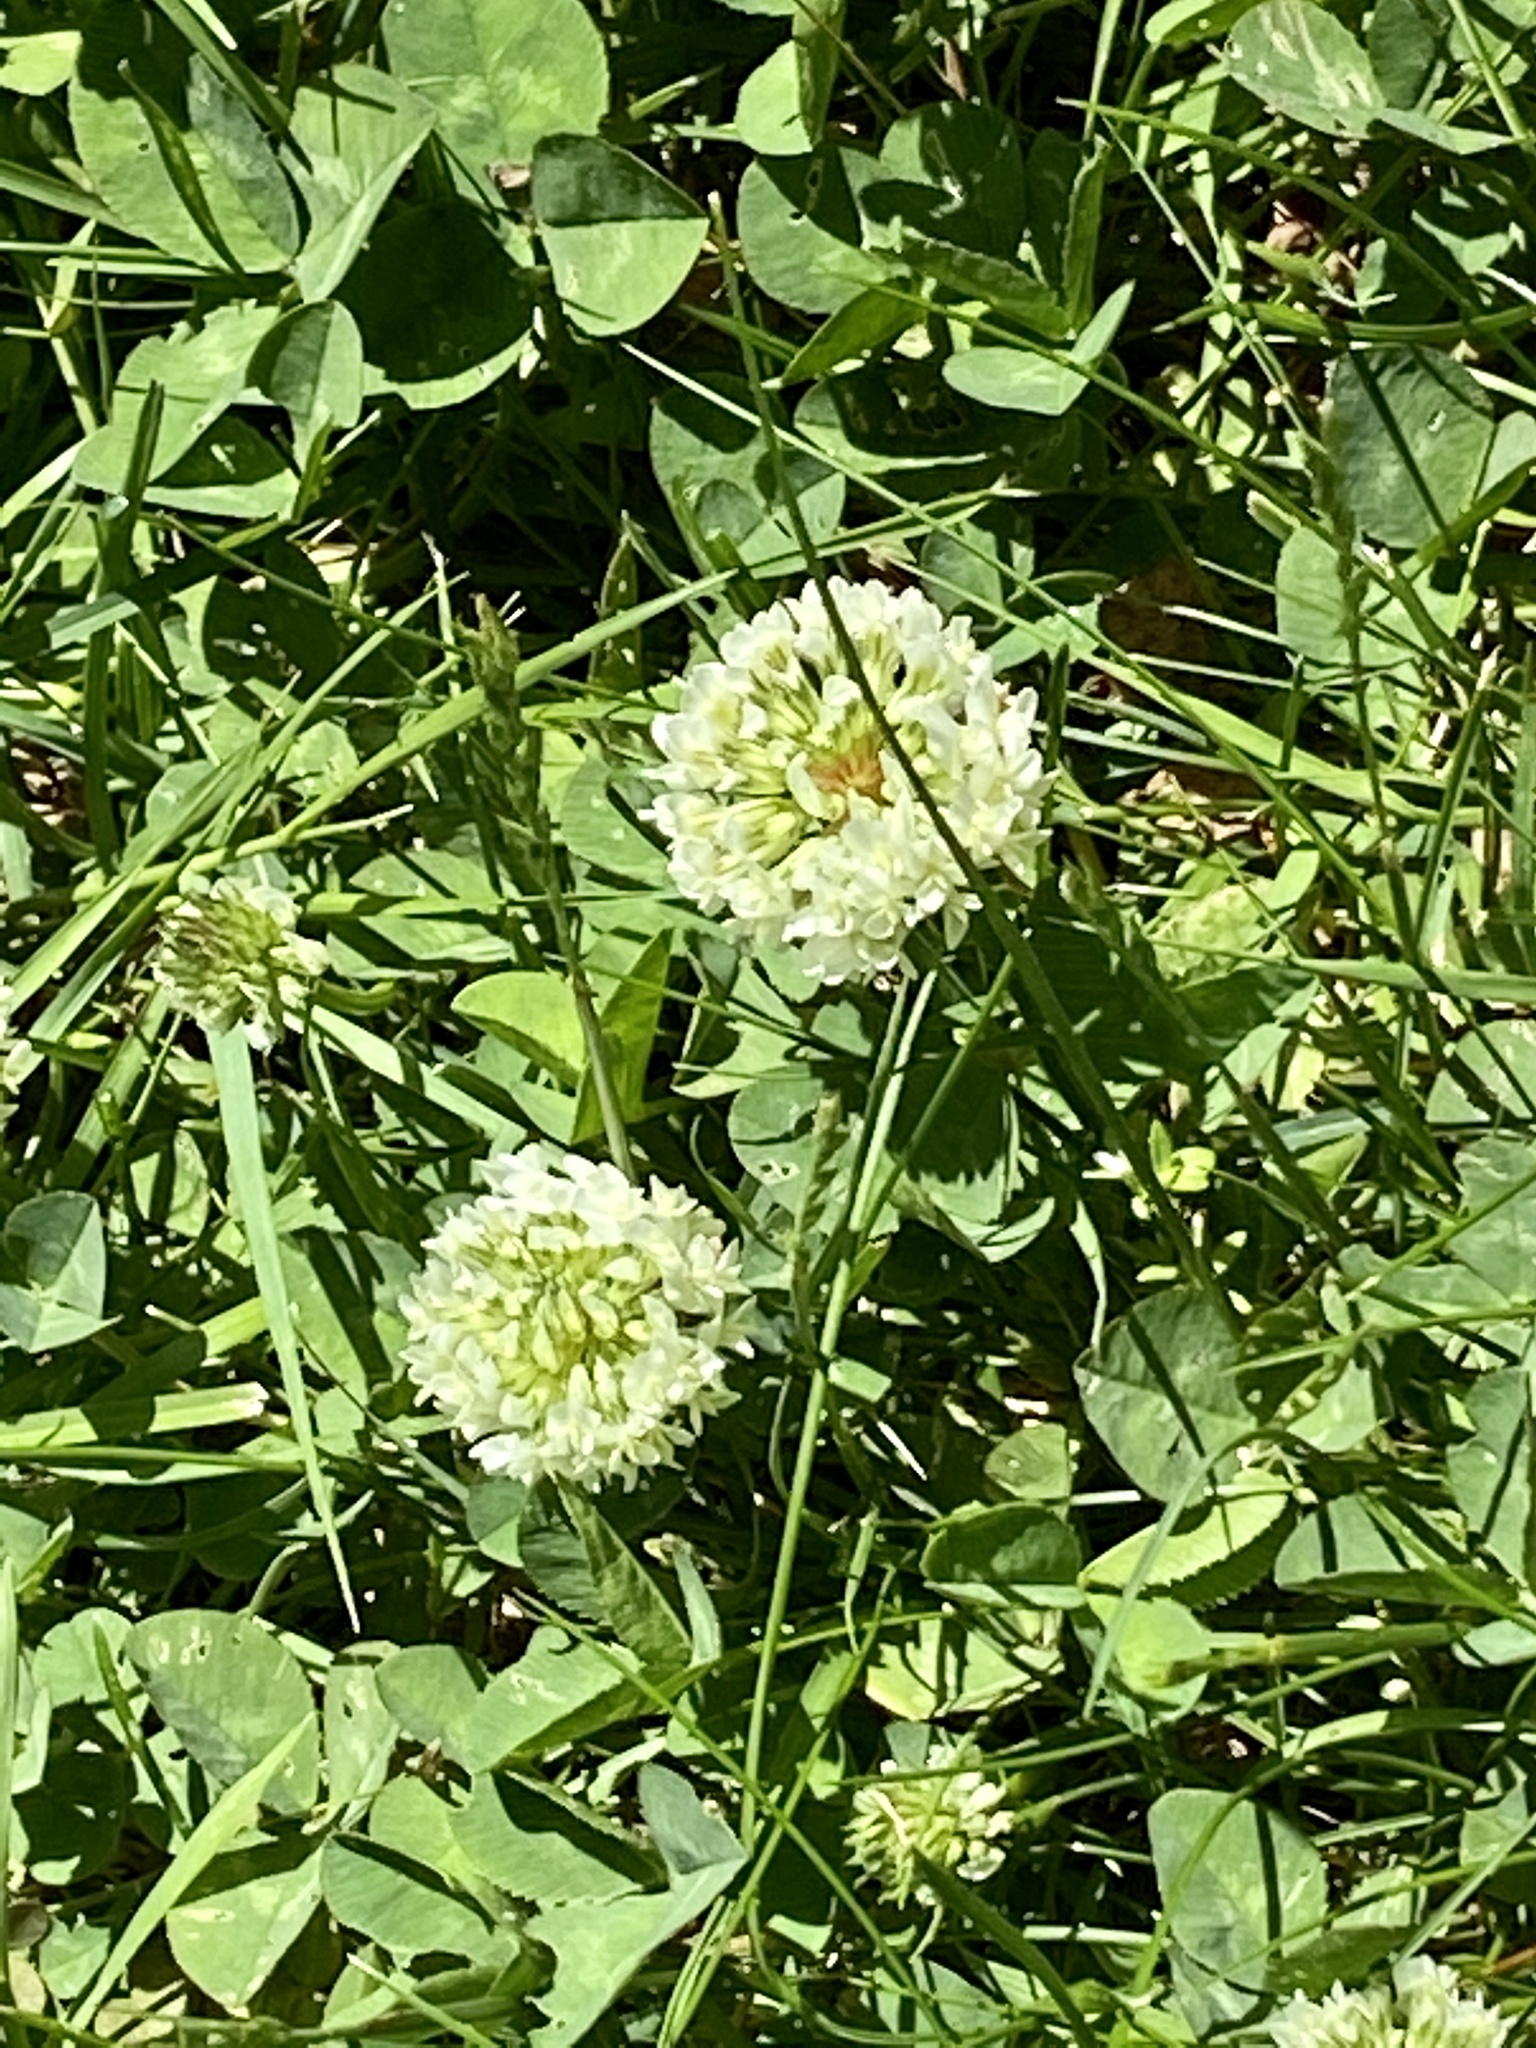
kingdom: Plantae
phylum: Tracheophyta
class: Magnoliopsida
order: Fabales
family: Fabaceae
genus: Trifolium
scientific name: Trifolium repens
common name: White clover
